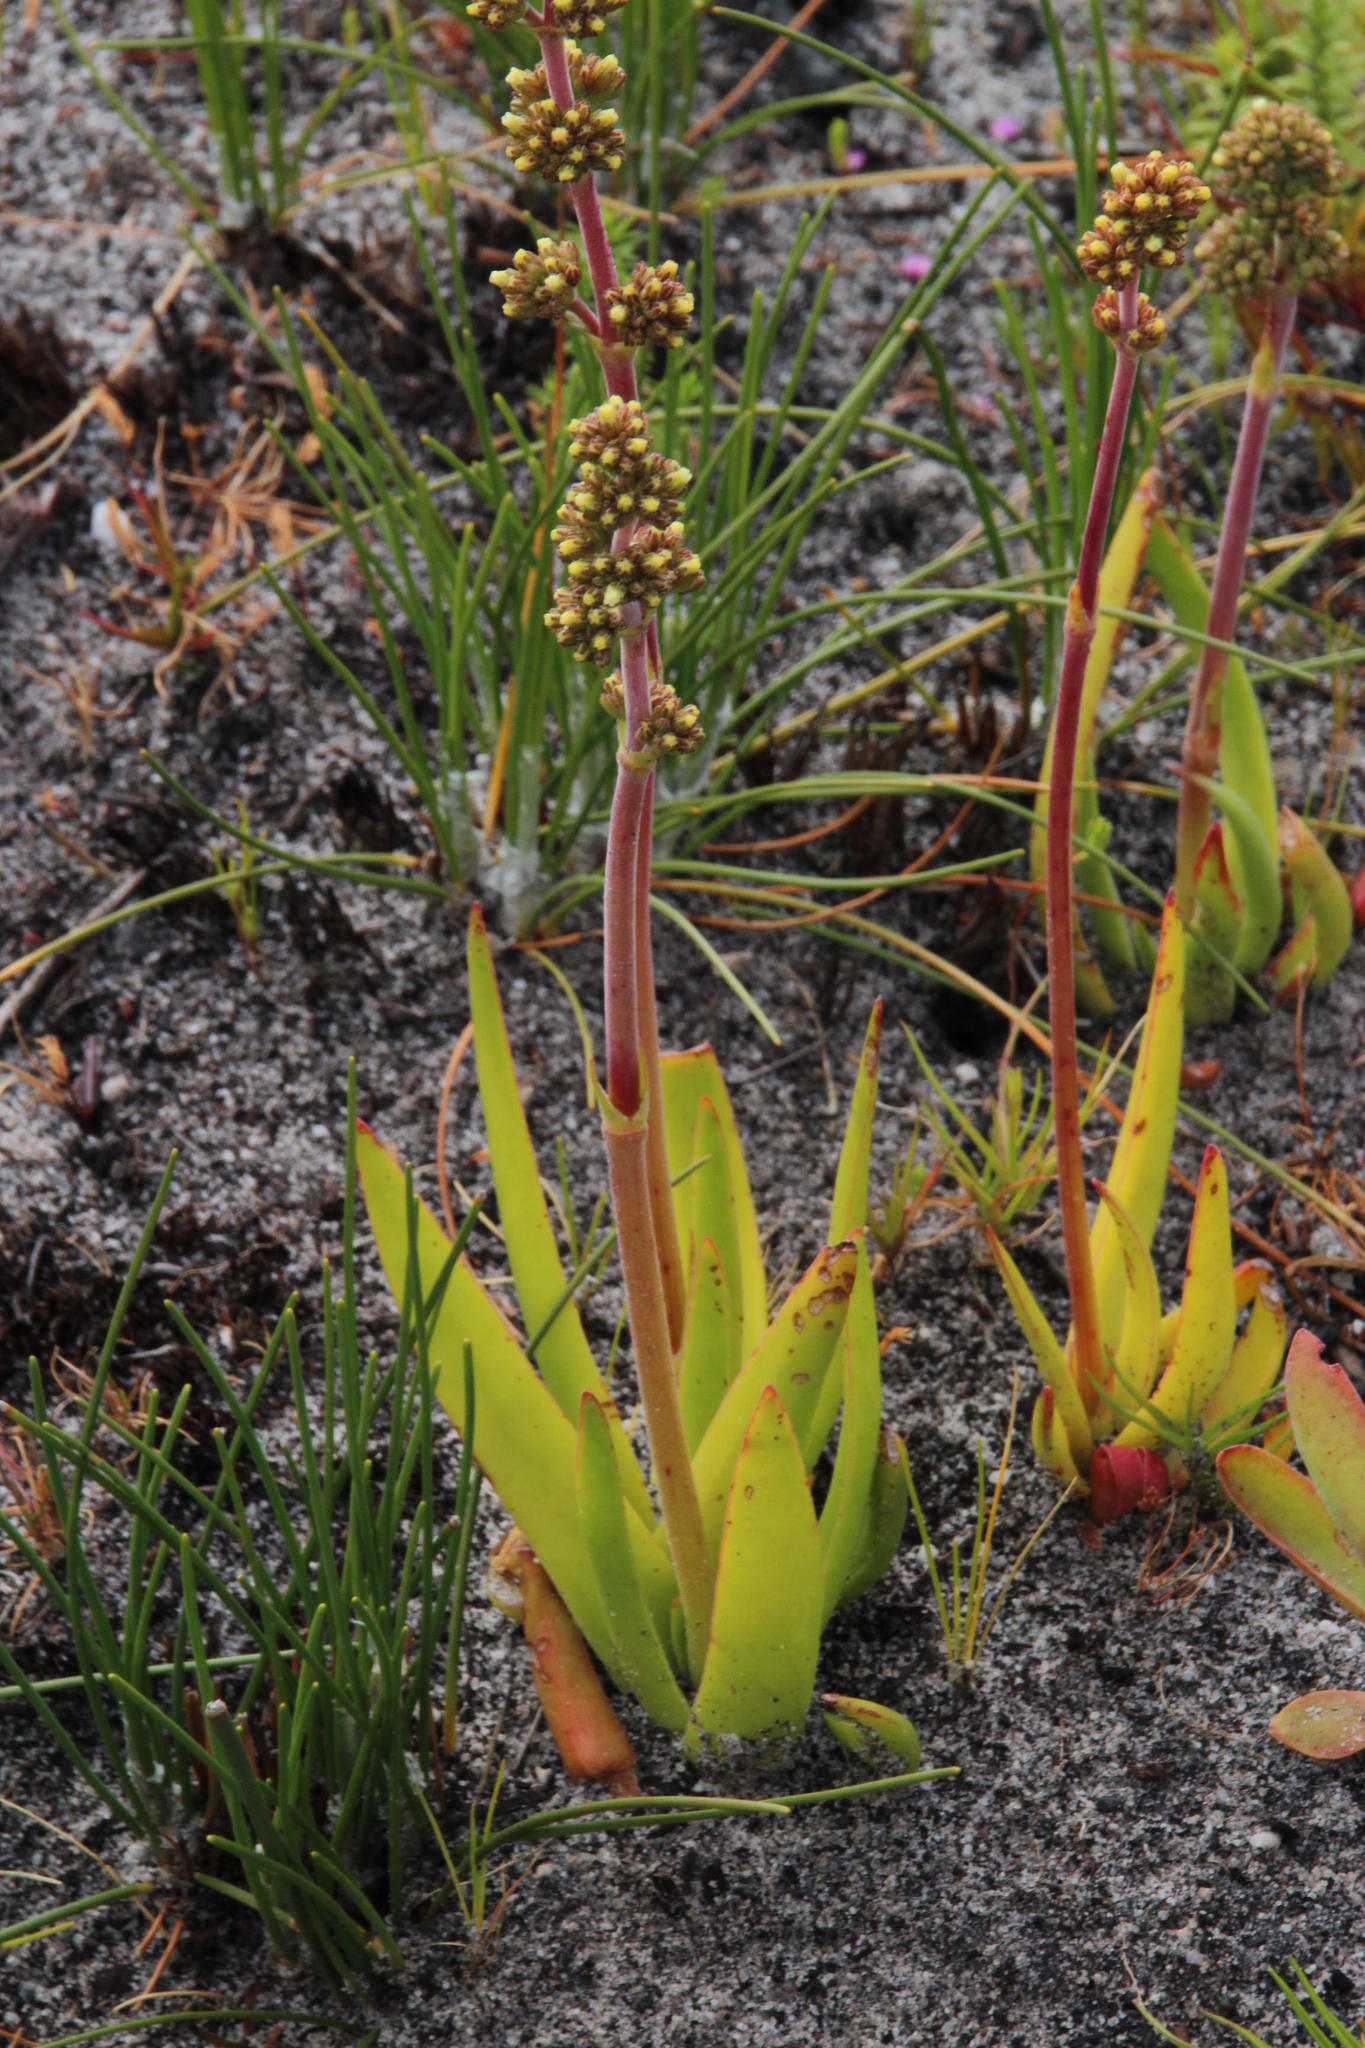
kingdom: Plantae
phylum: Tracheophyta
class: Magnoliopsida
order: Saxifragales
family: Crassulaceae
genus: Crassula
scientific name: Crassula nudicaulis
